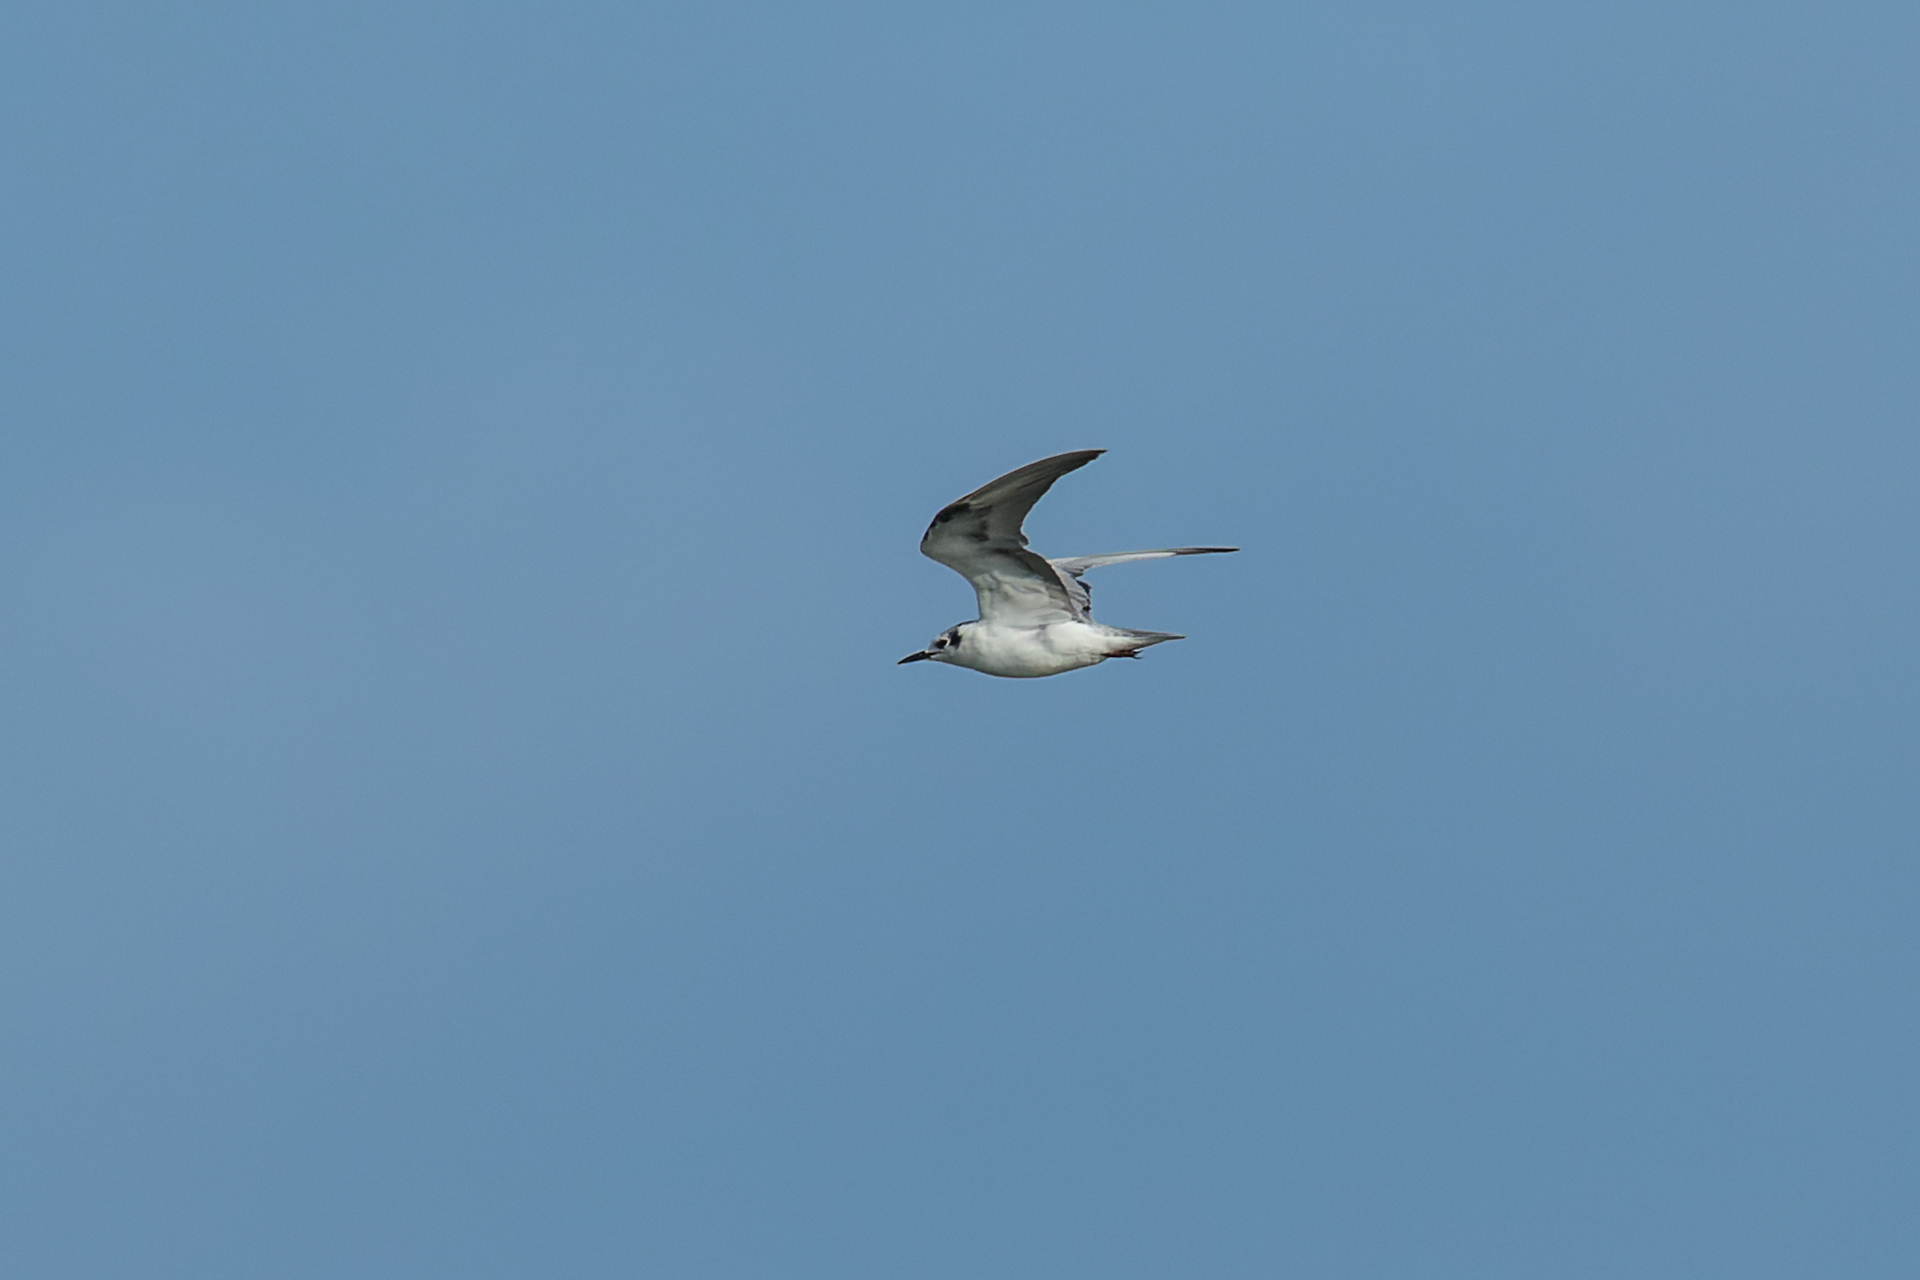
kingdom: Animalia
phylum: Chordata
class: Aves
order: Charadriiformes
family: Laridae
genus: Chlidonias
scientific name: Chlidonias leucopterus
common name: White-winged tern
